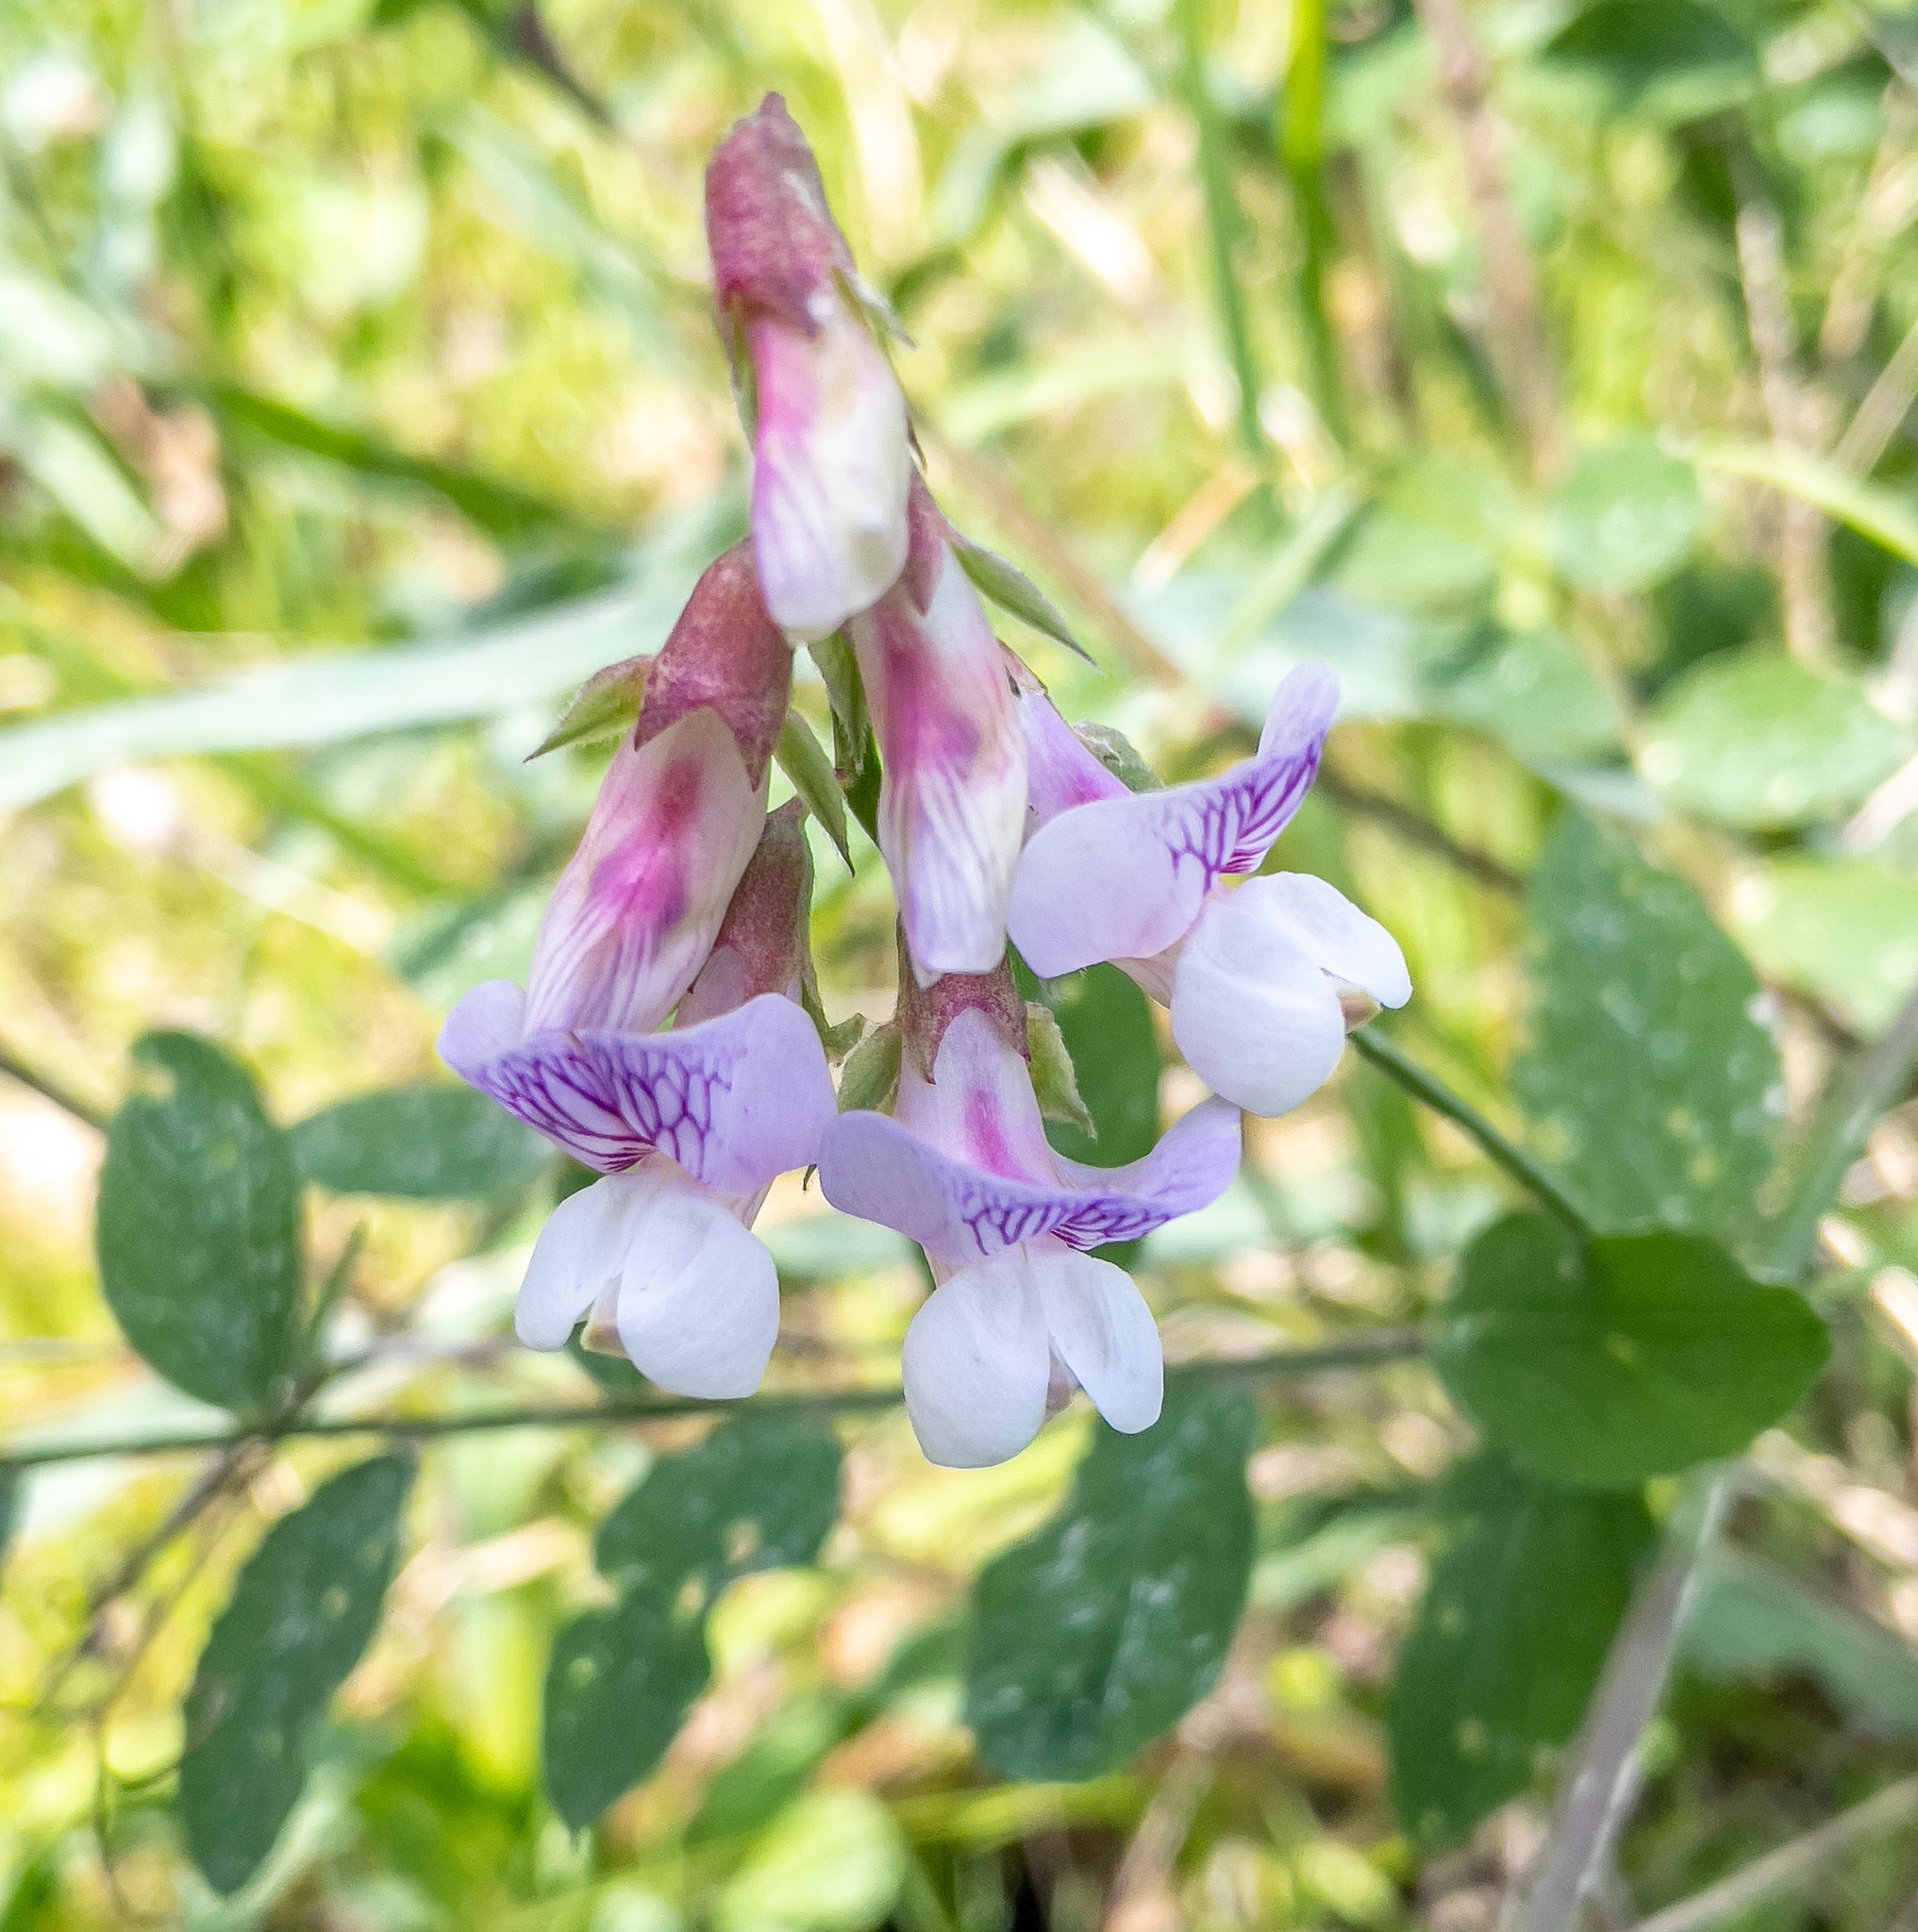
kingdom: Plantae
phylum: Tracheophyta
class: Magnoliopsida
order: Fabales
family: Fabaceae
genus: Lathyrus
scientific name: Lathyrus vestitus
